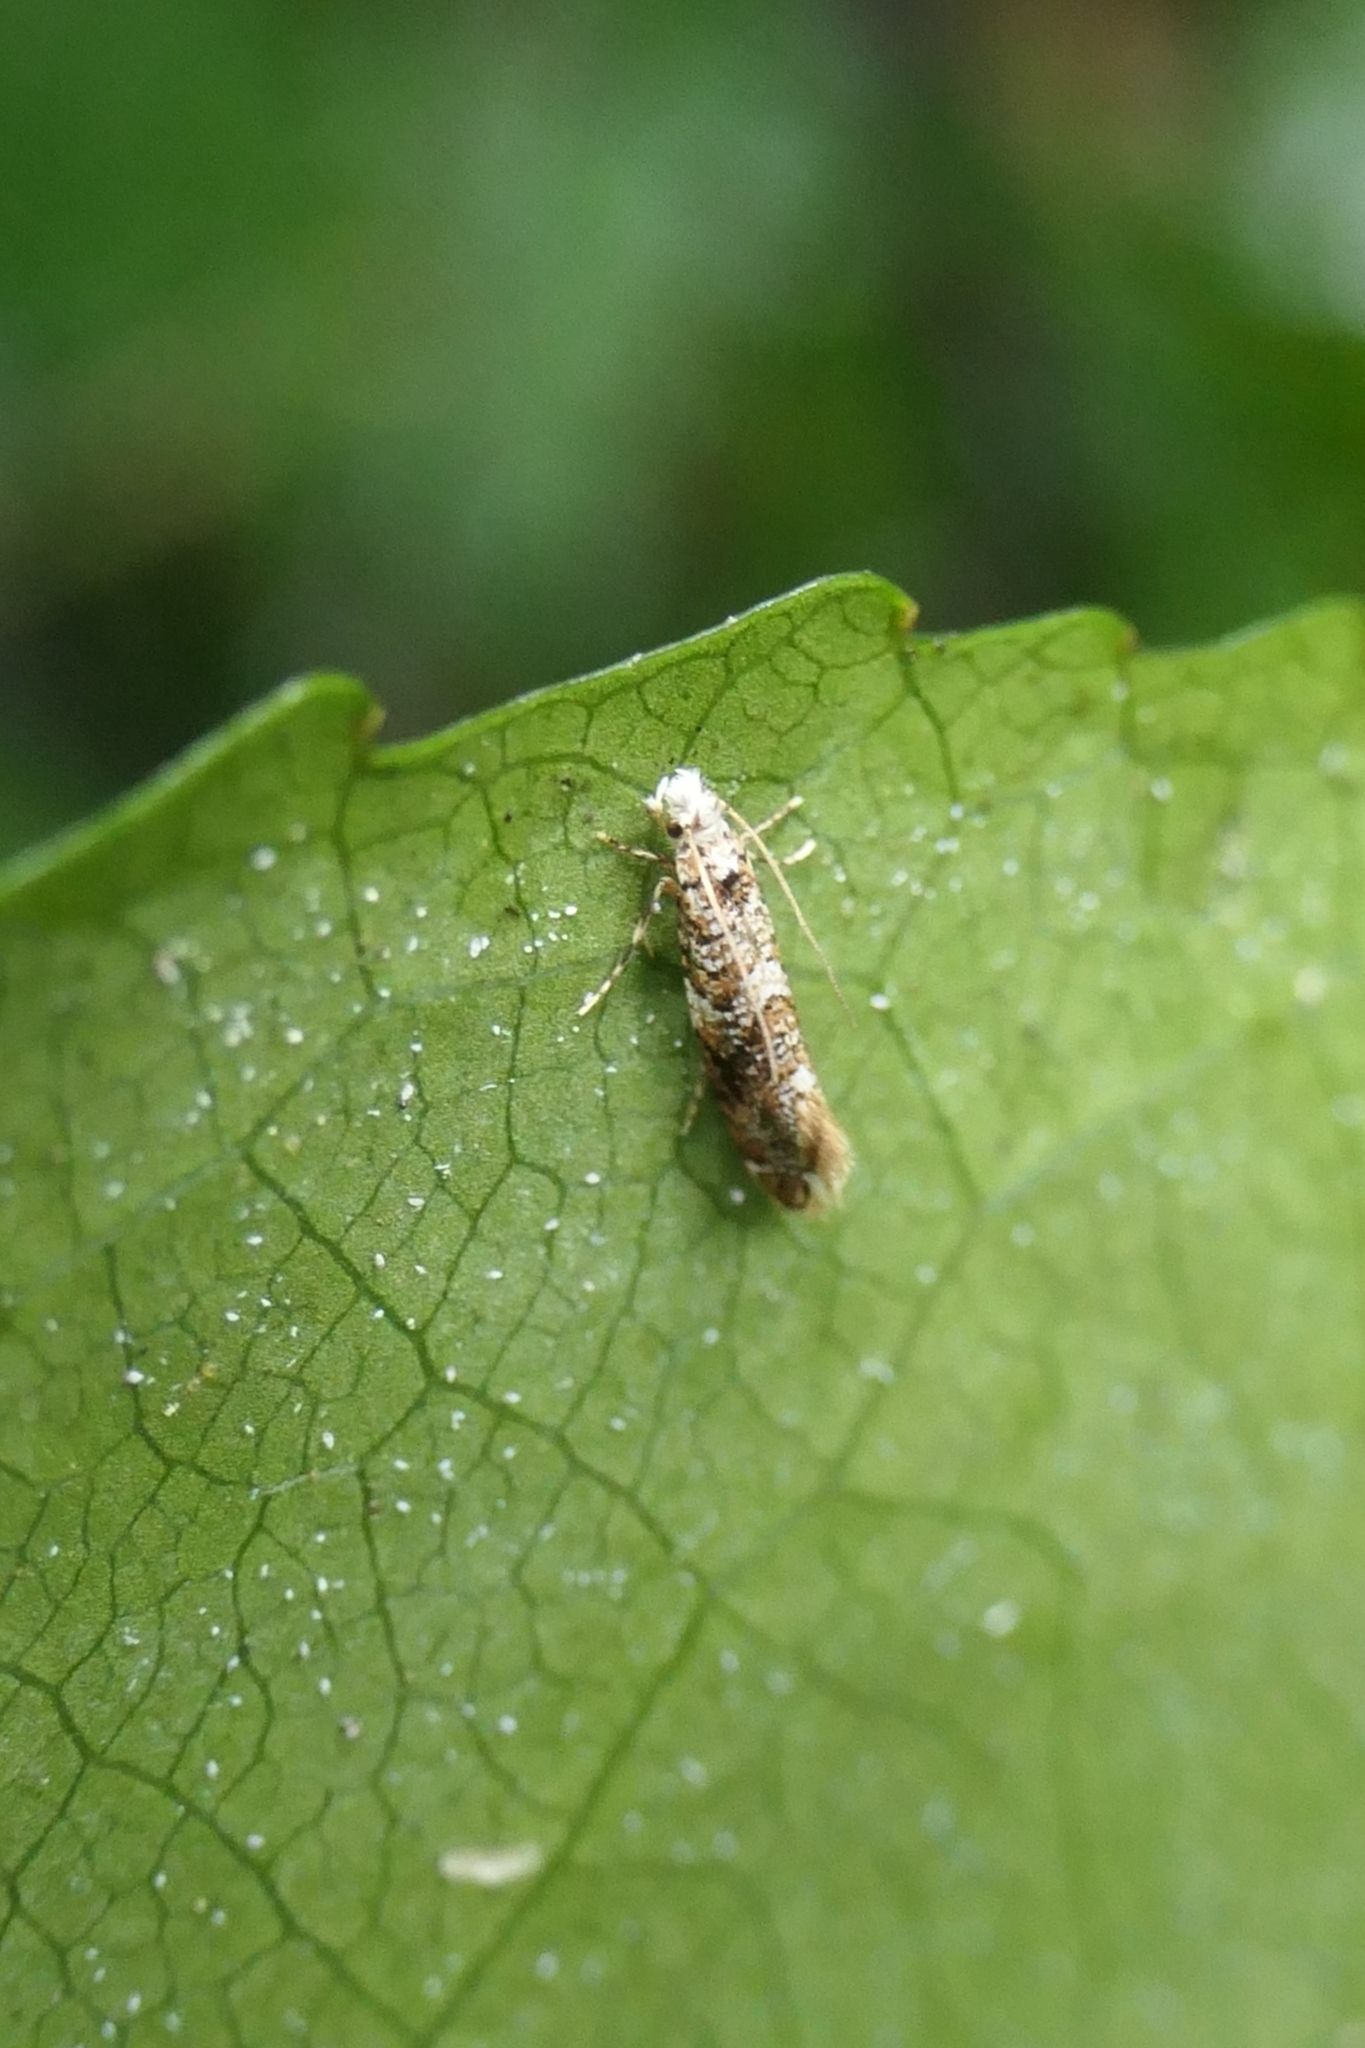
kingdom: Animalia
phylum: Arthropoda
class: Insecta
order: Lepidoptera
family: Tineidae
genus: Eschatotypa
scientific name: Eschatotypa derogatella
